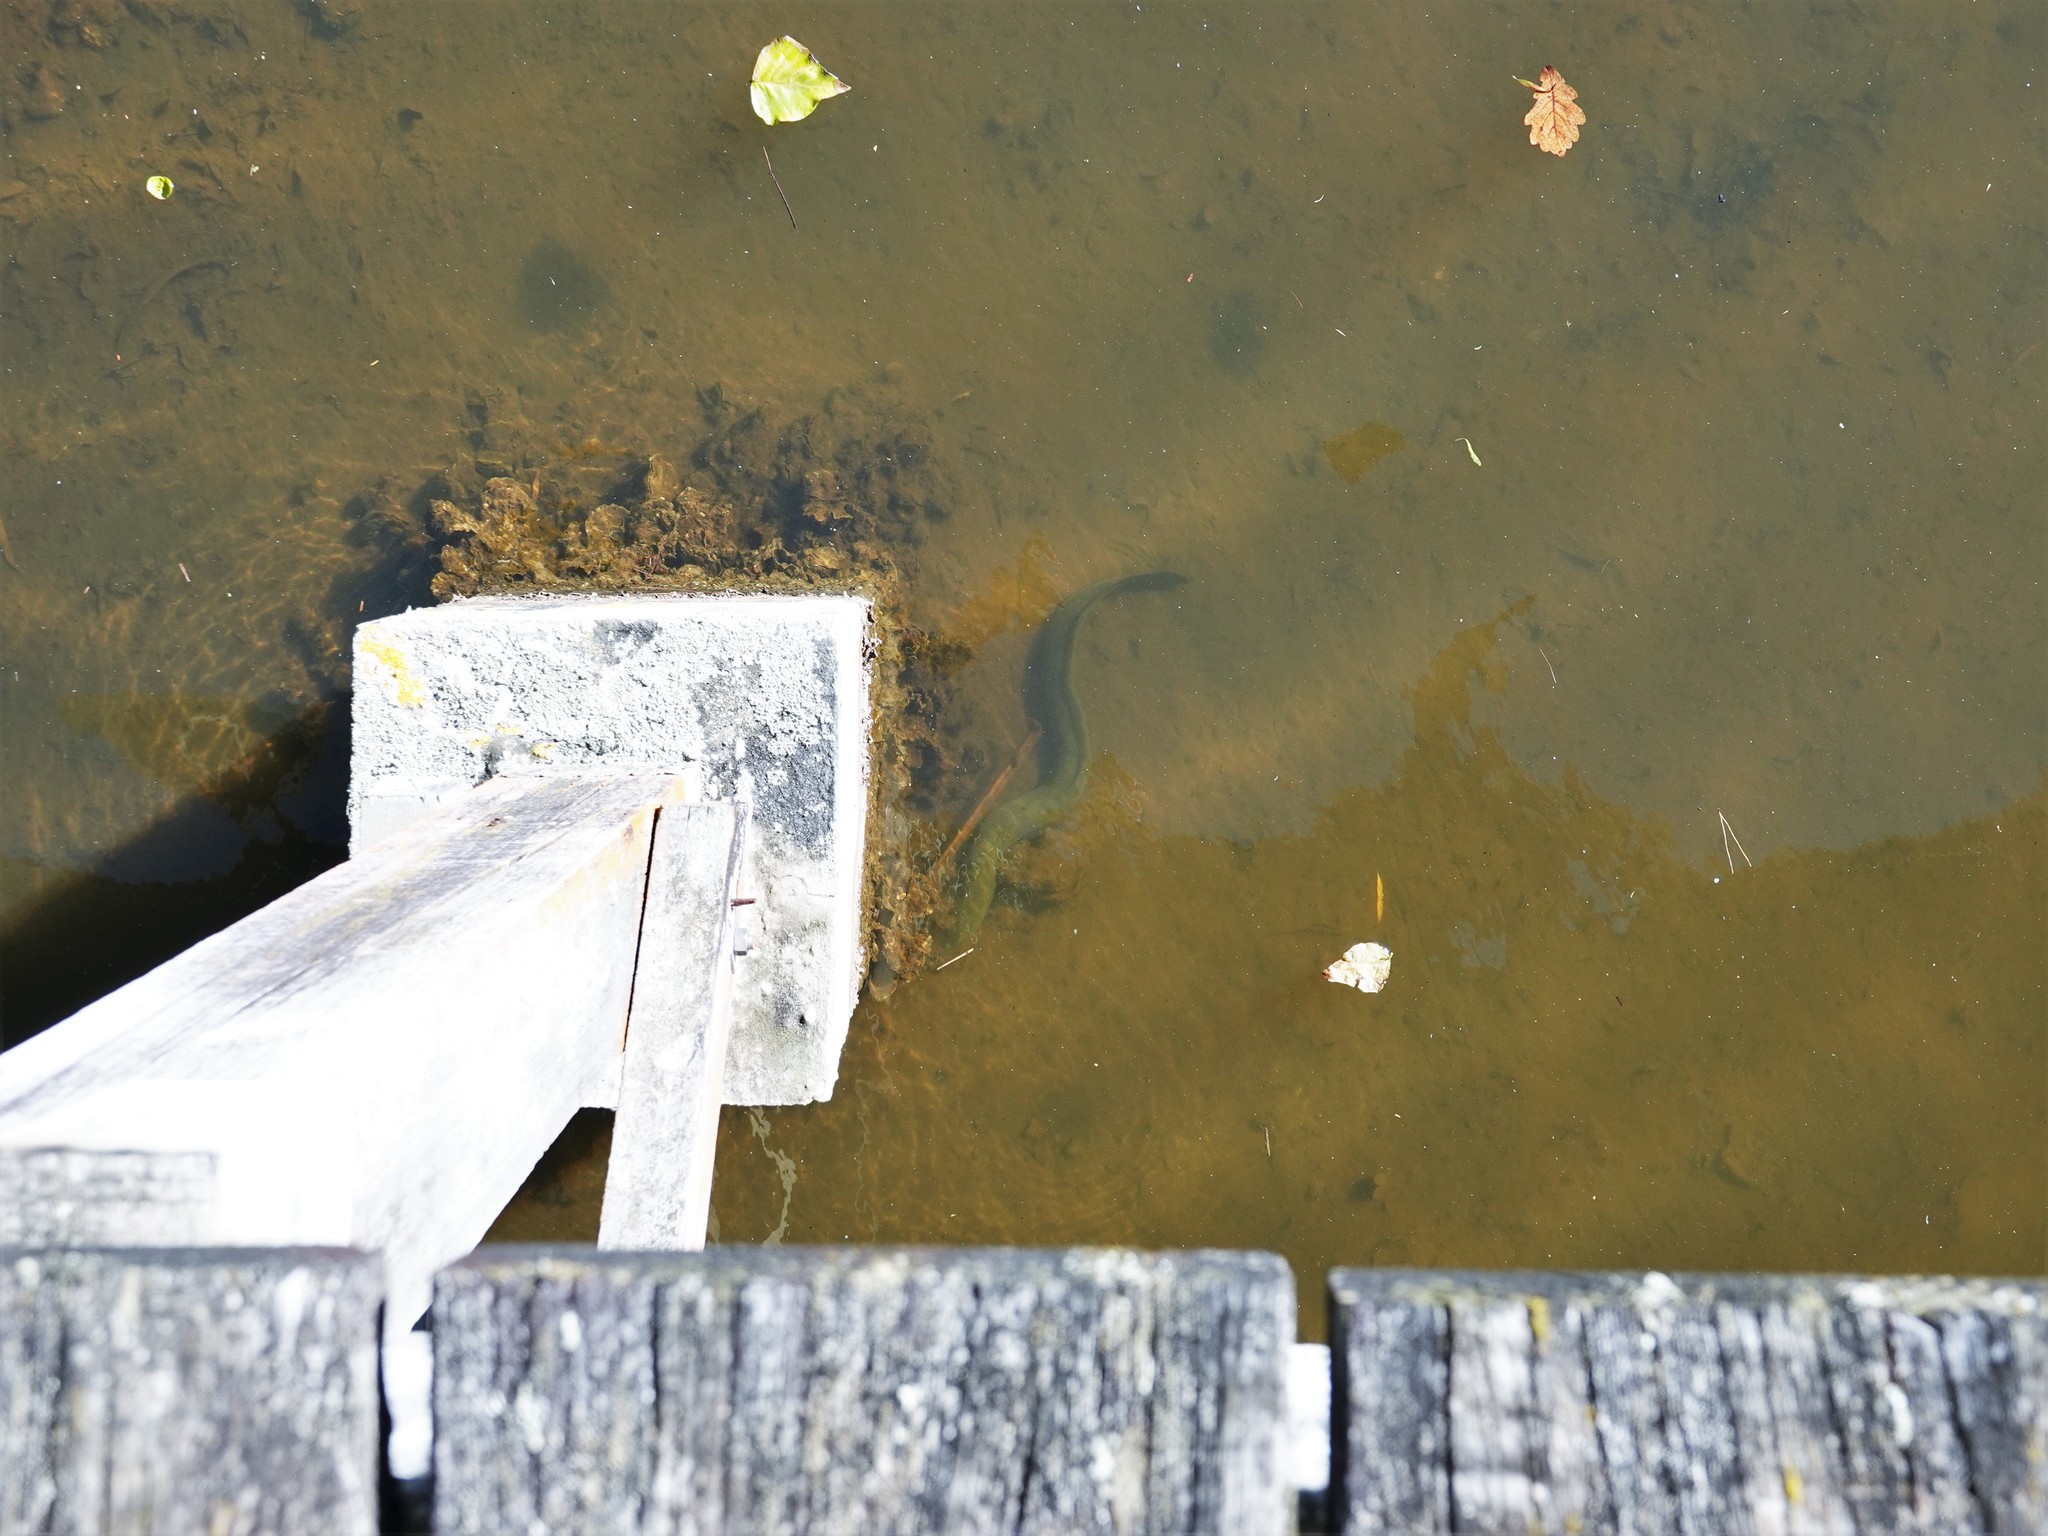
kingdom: Animalia
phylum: Chordata
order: Anguilliformes
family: Anguillidae
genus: Anguilla
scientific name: Anguilla australis
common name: Shortfin eel
